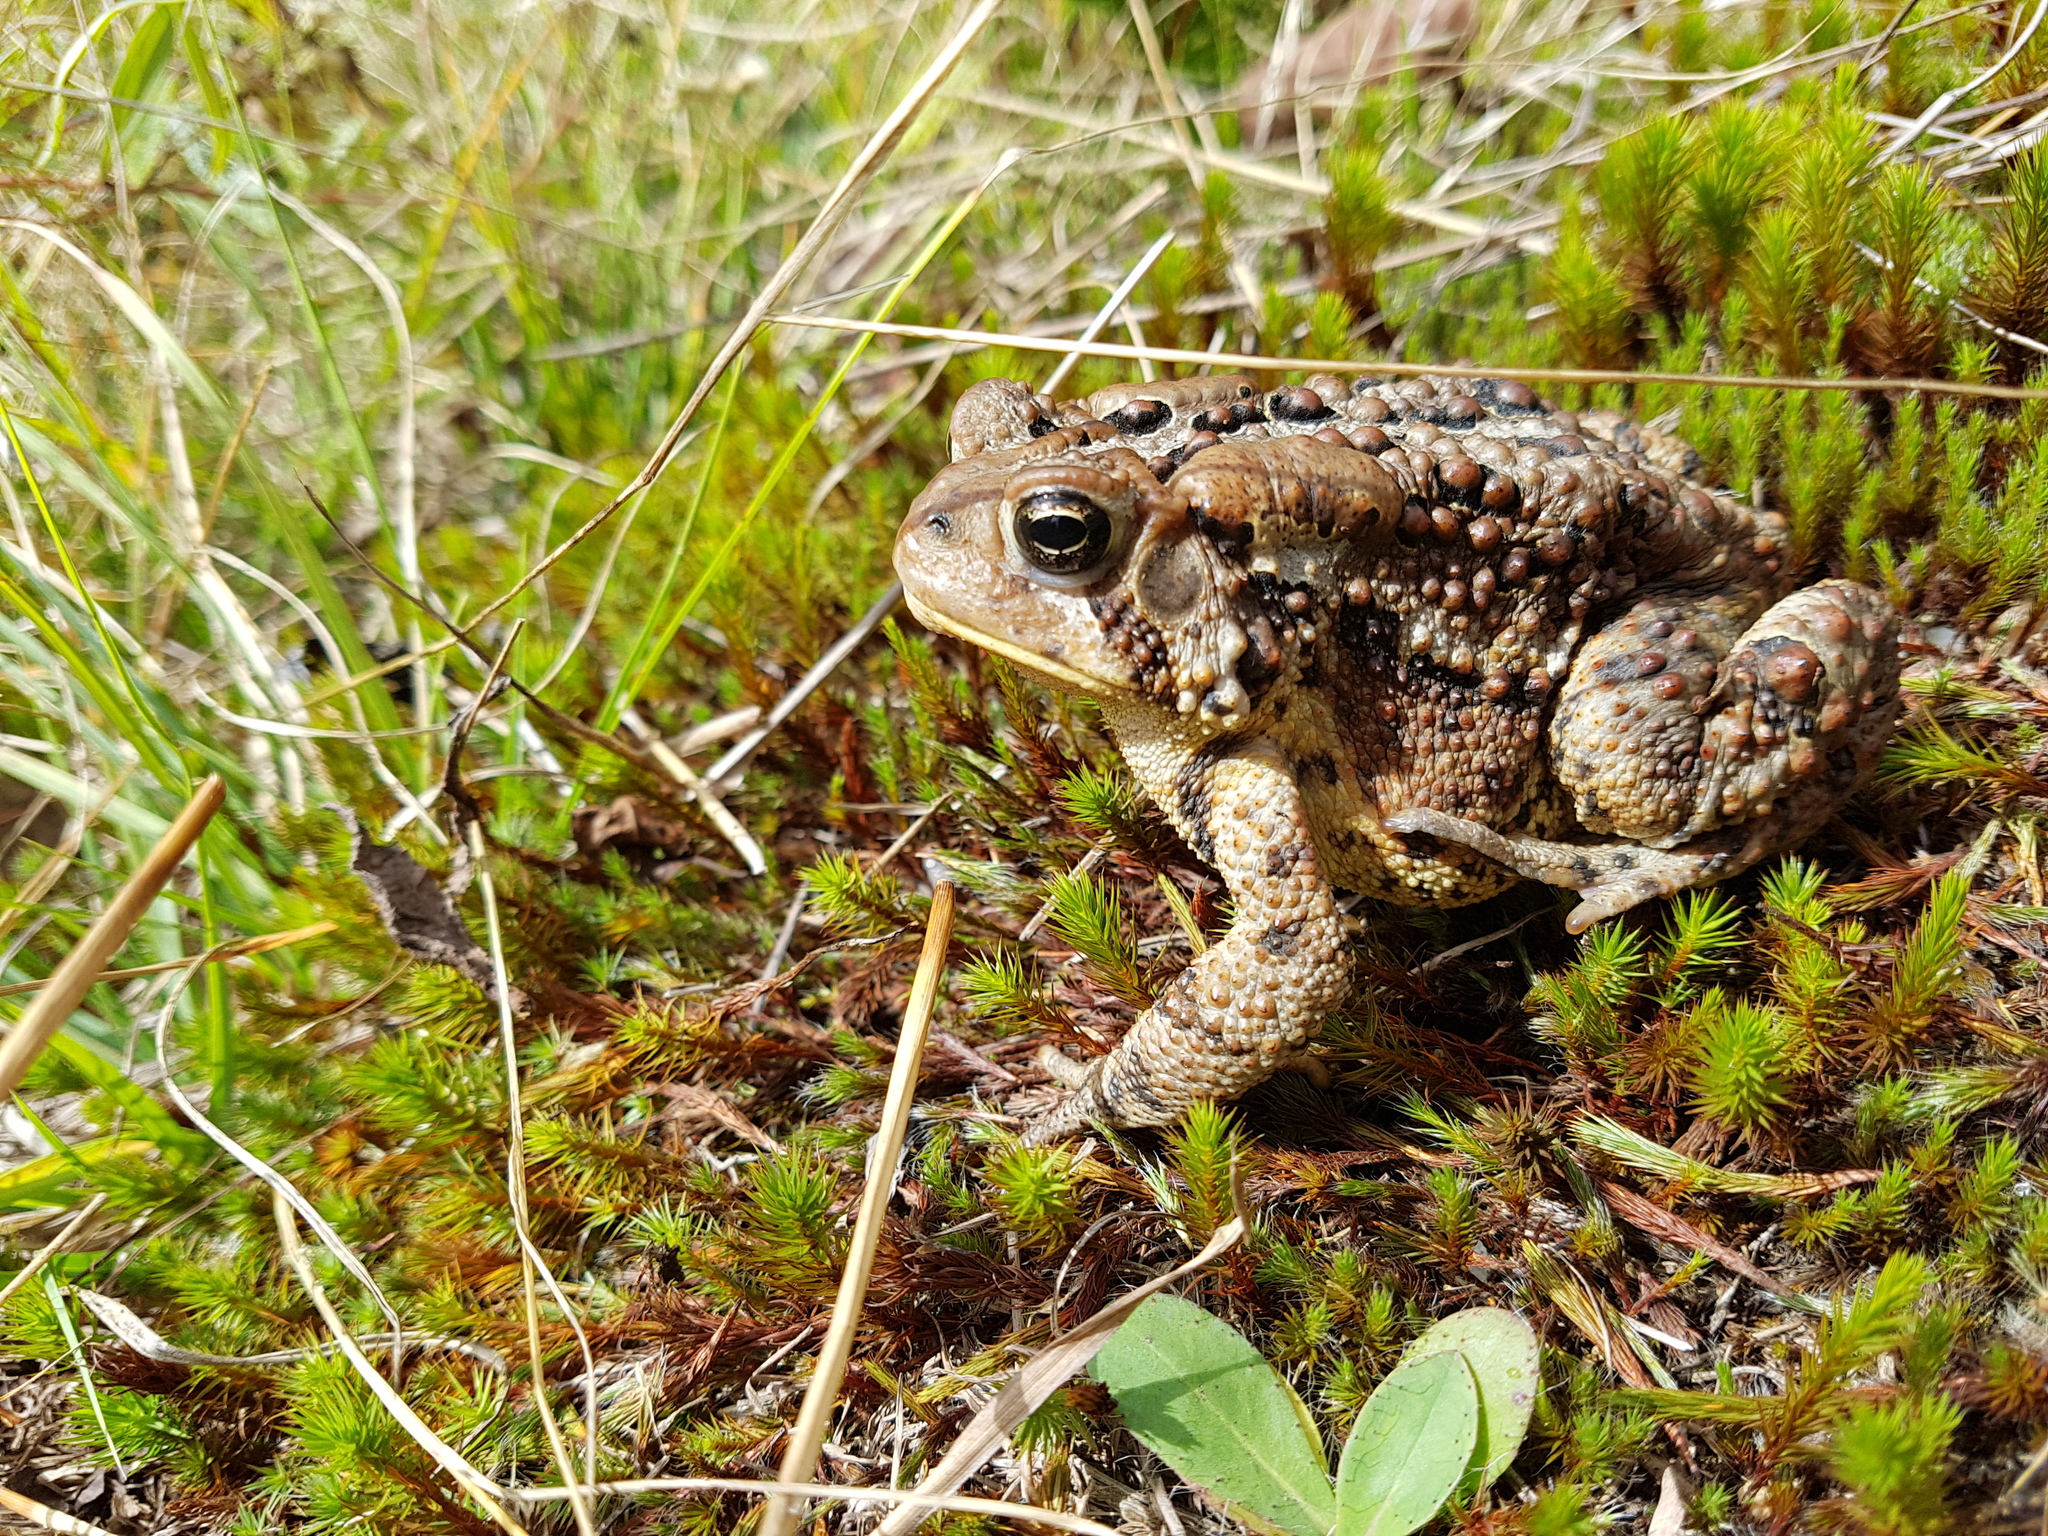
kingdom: Animalia
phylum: Chordata
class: Amphibia
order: Anura
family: Bufonidae
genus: Anaxyrus
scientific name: Anaxyrus americanus
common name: American toad
